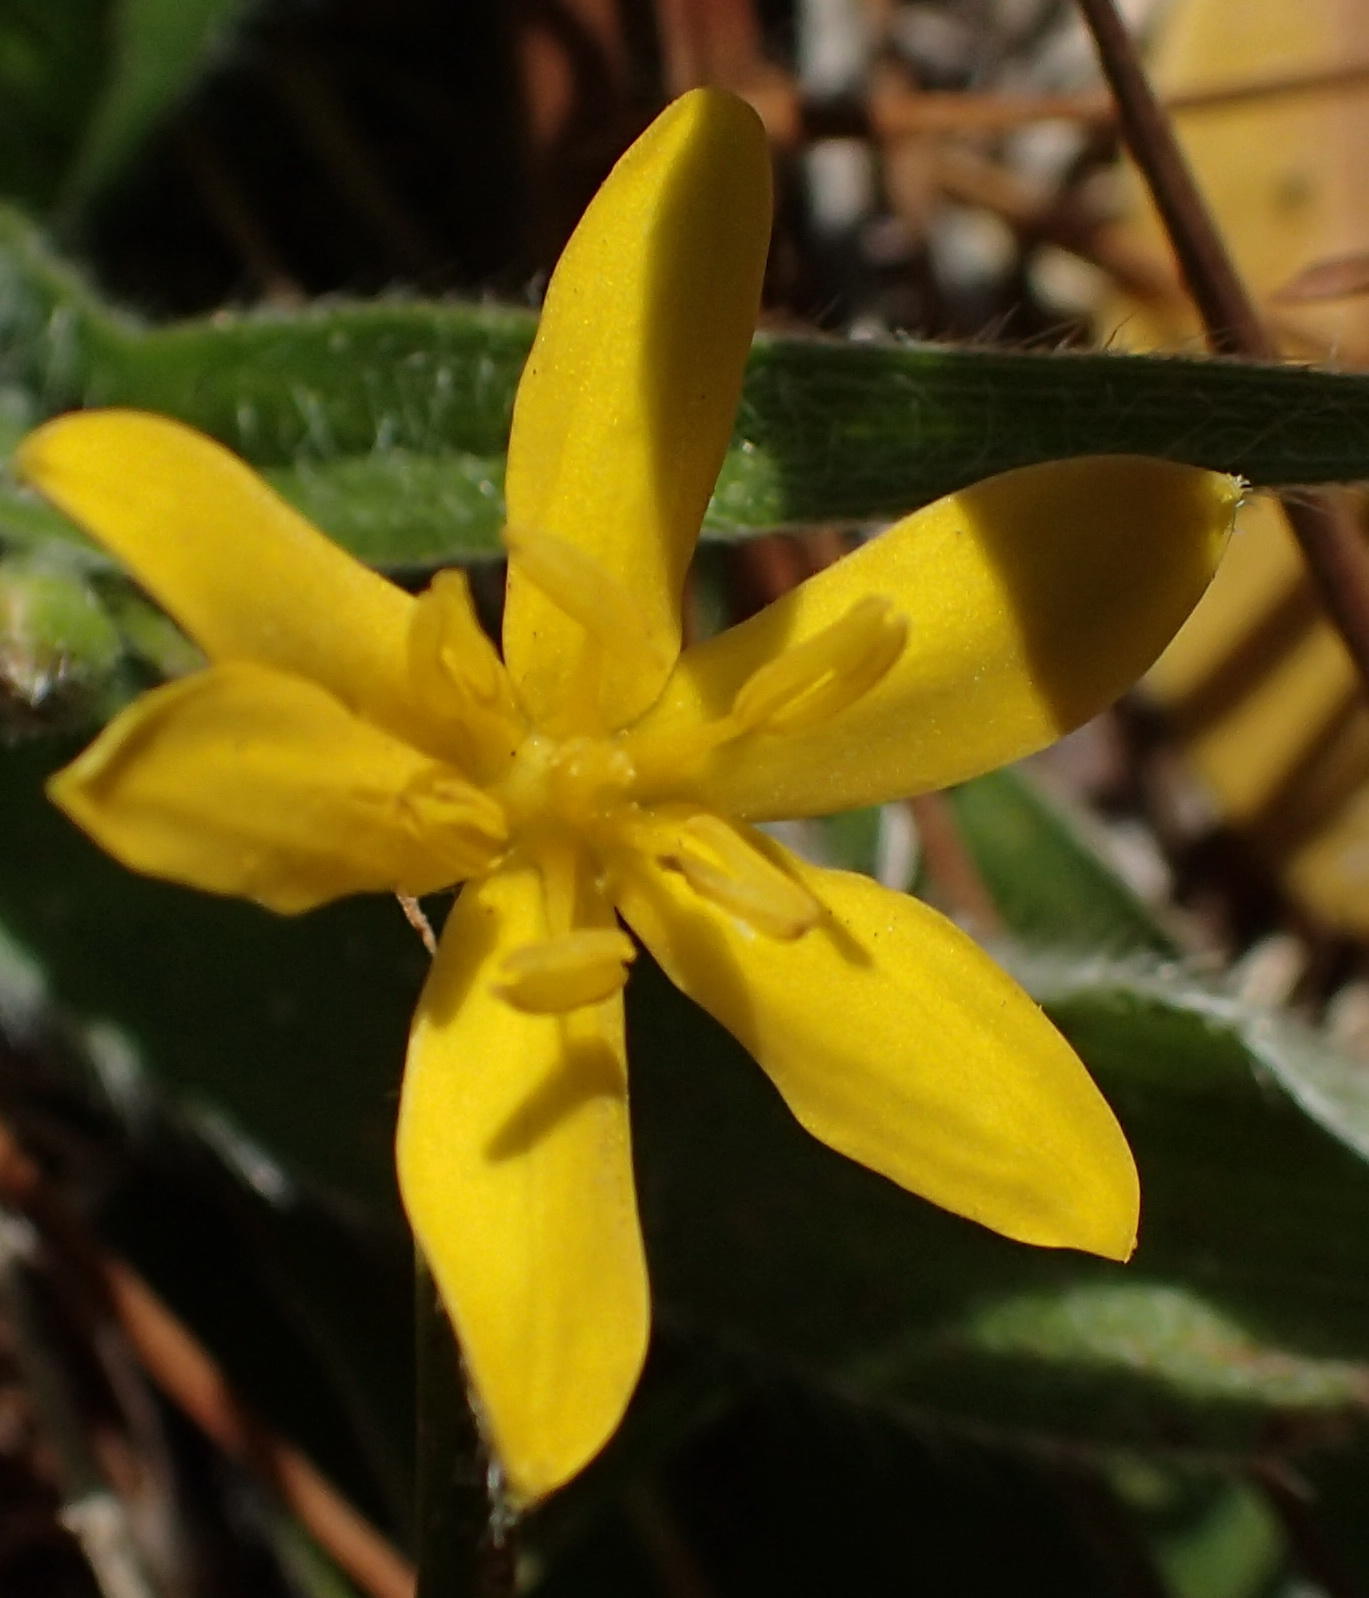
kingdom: Plantae
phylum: Tracheophyta
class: Liliopsida
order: Asparagales
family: Hypoxidaceae
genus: Hypoxis
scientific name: Hypoxis sobolifera
